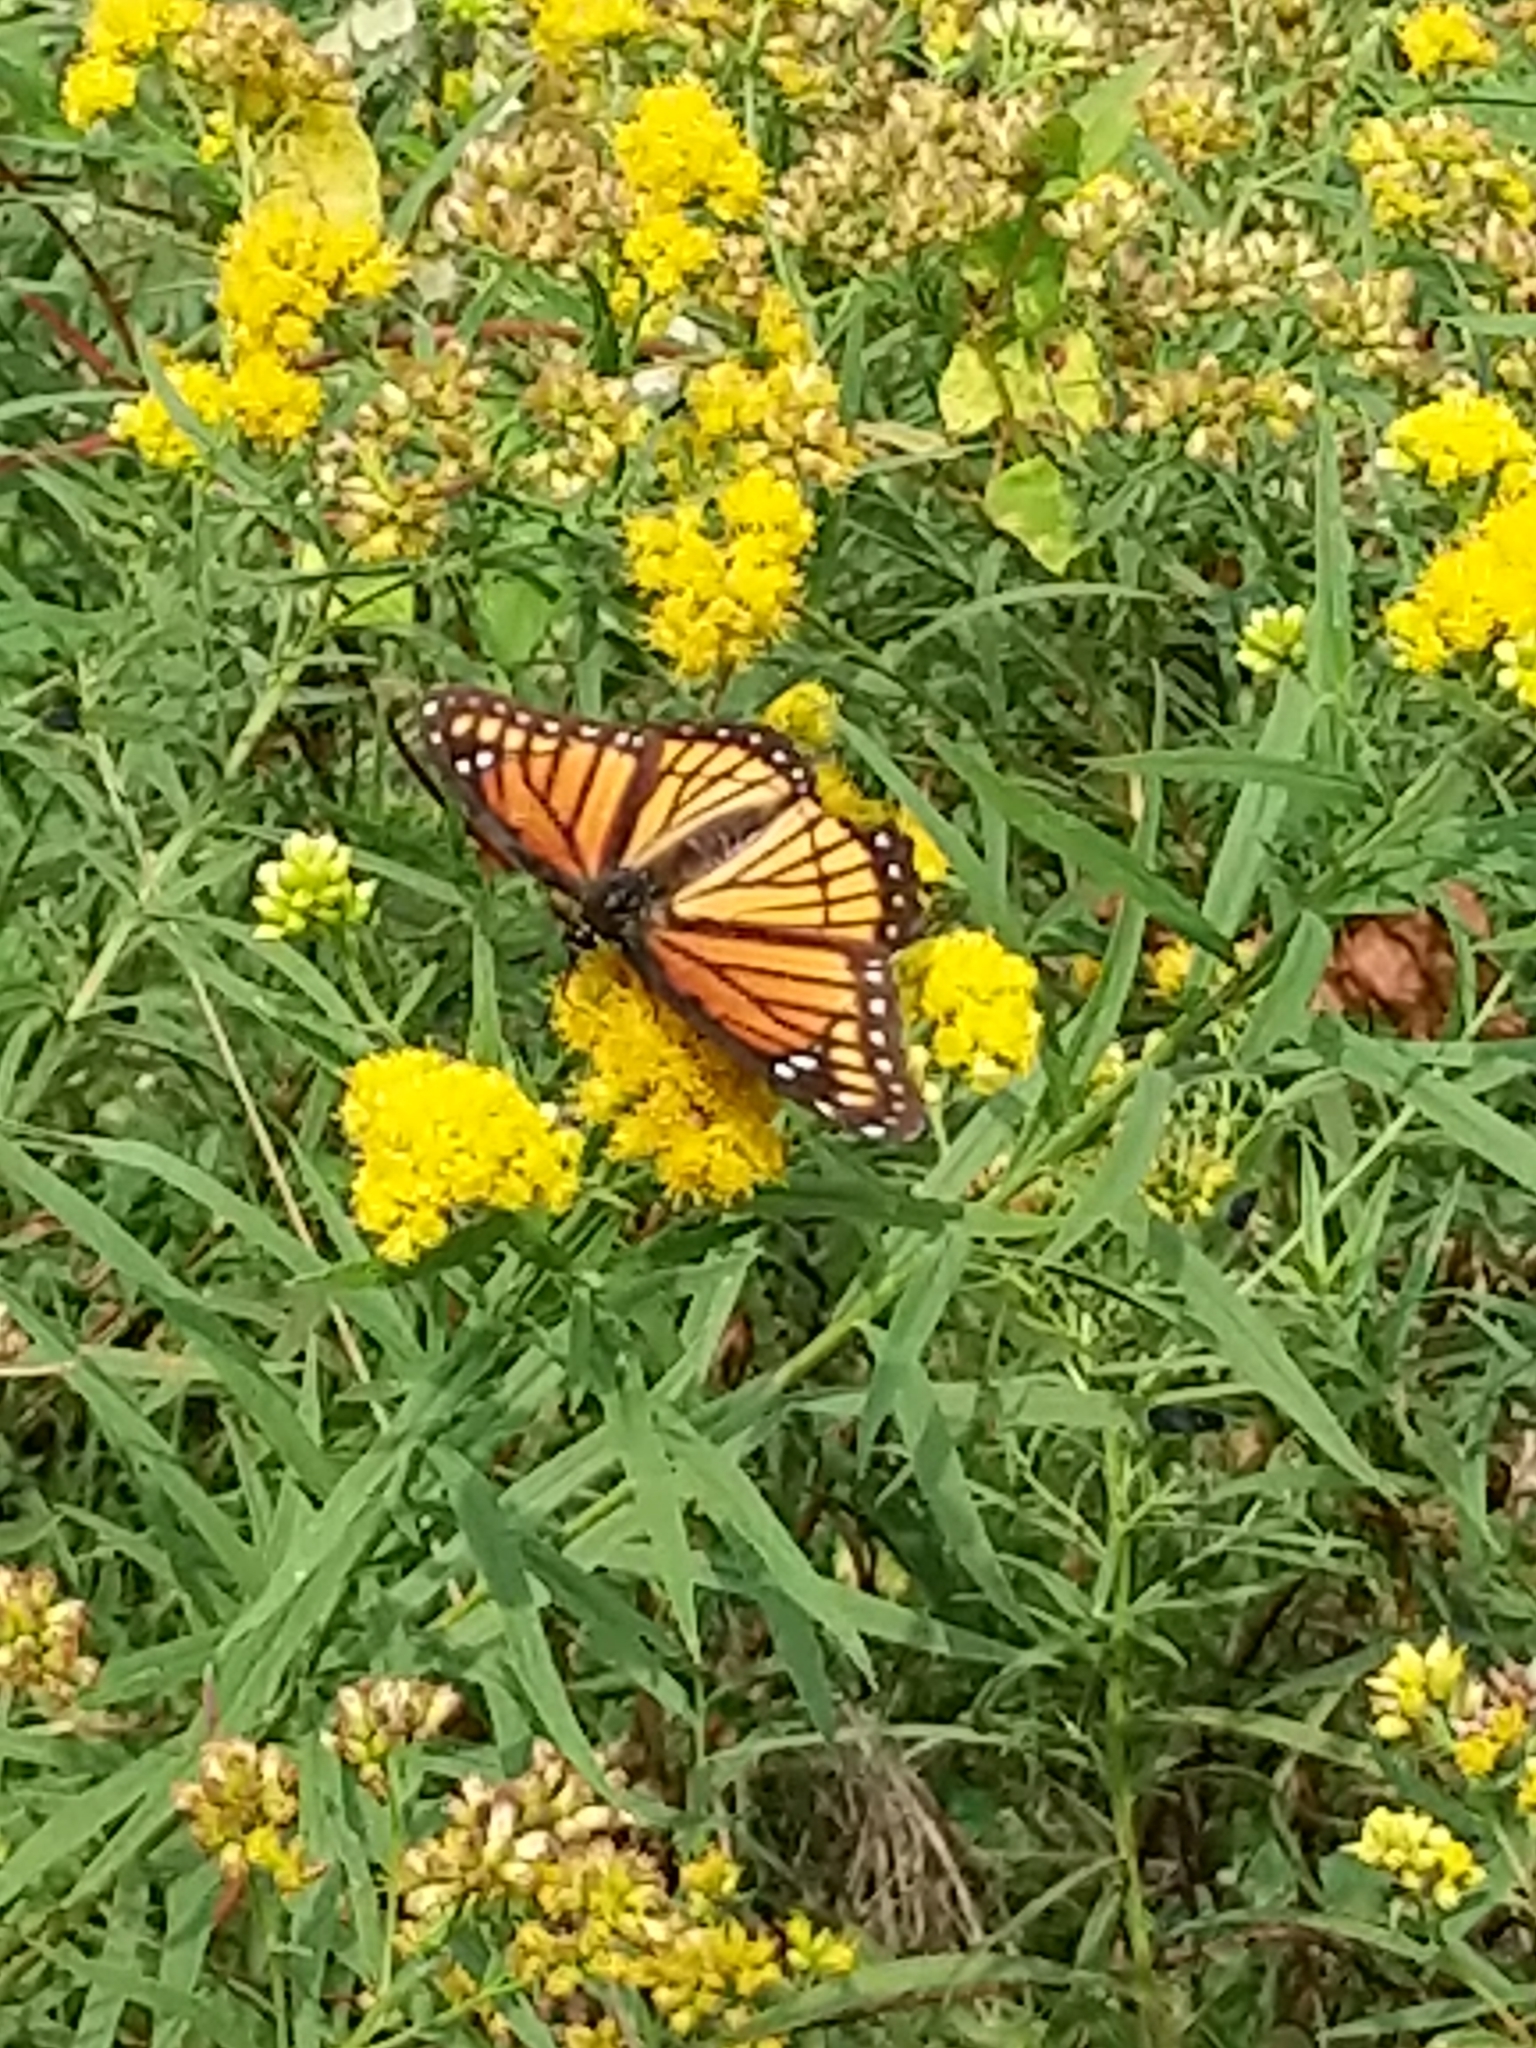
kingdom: Animalia
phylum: Arthropoda
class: Insecta
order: Lepidoptera
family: Nymphalidae
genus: Limenitis
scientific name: Limenitis archippus
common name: Viceroy
